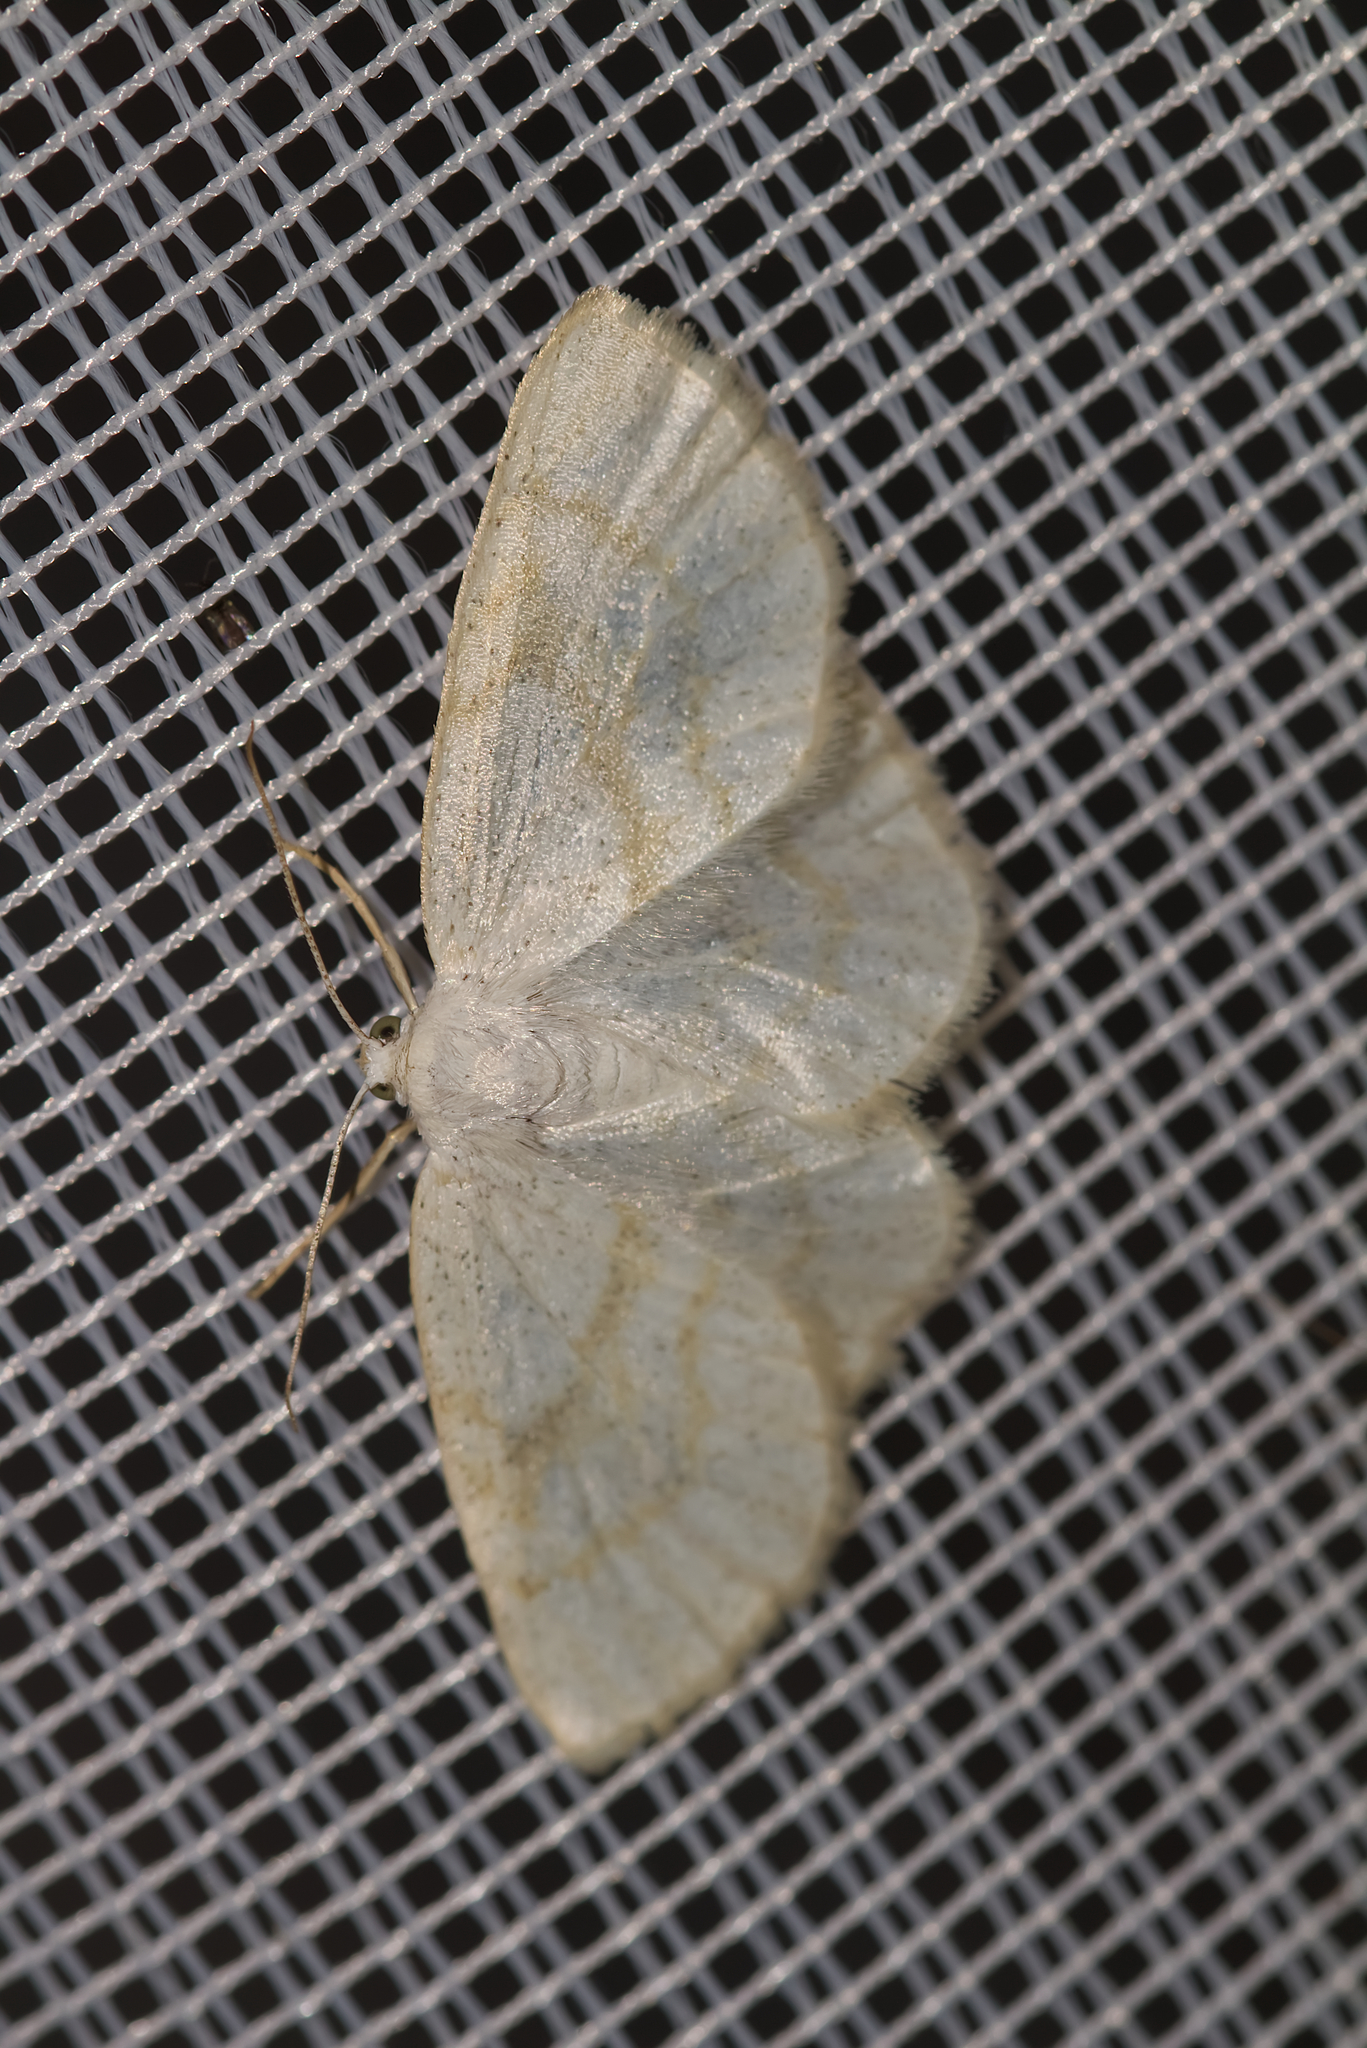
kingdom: Animalia
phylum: Arthropoda
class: Insecta
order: Lepidoptera
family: Geometridae
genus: Cabera
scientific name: Cabera exanthemata
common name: Common wave
